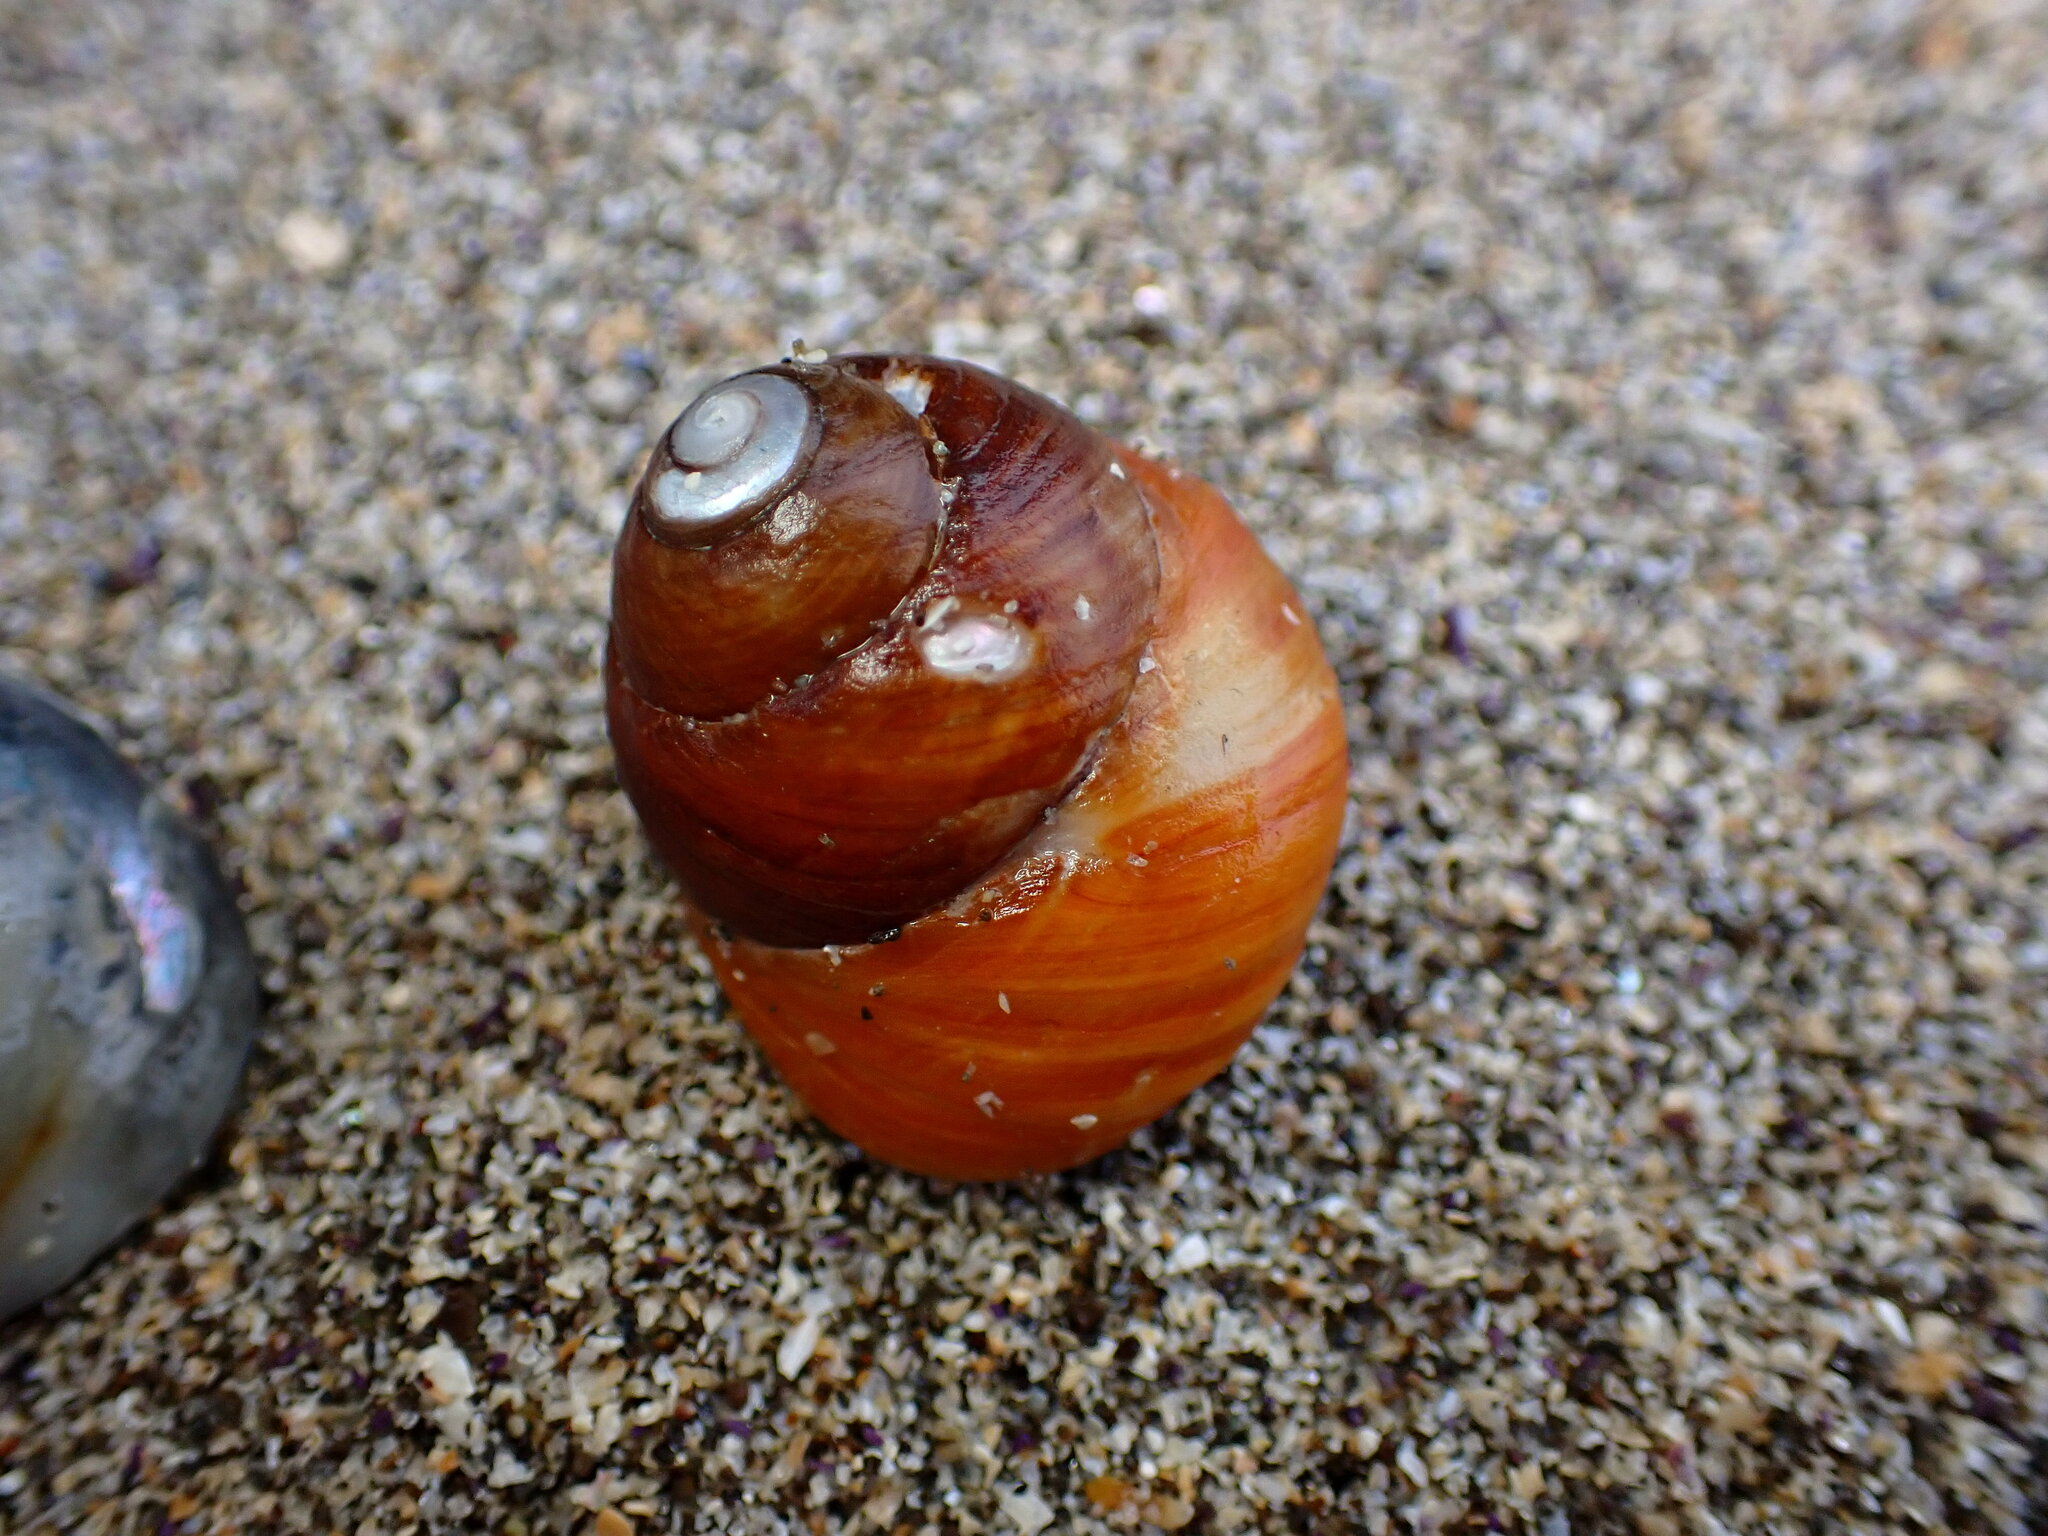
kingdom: Animalia
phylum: Mollusca
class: Gastropoda
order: Trochida
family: Tegulidae
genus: Tegula
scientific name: Tegula brunnea
